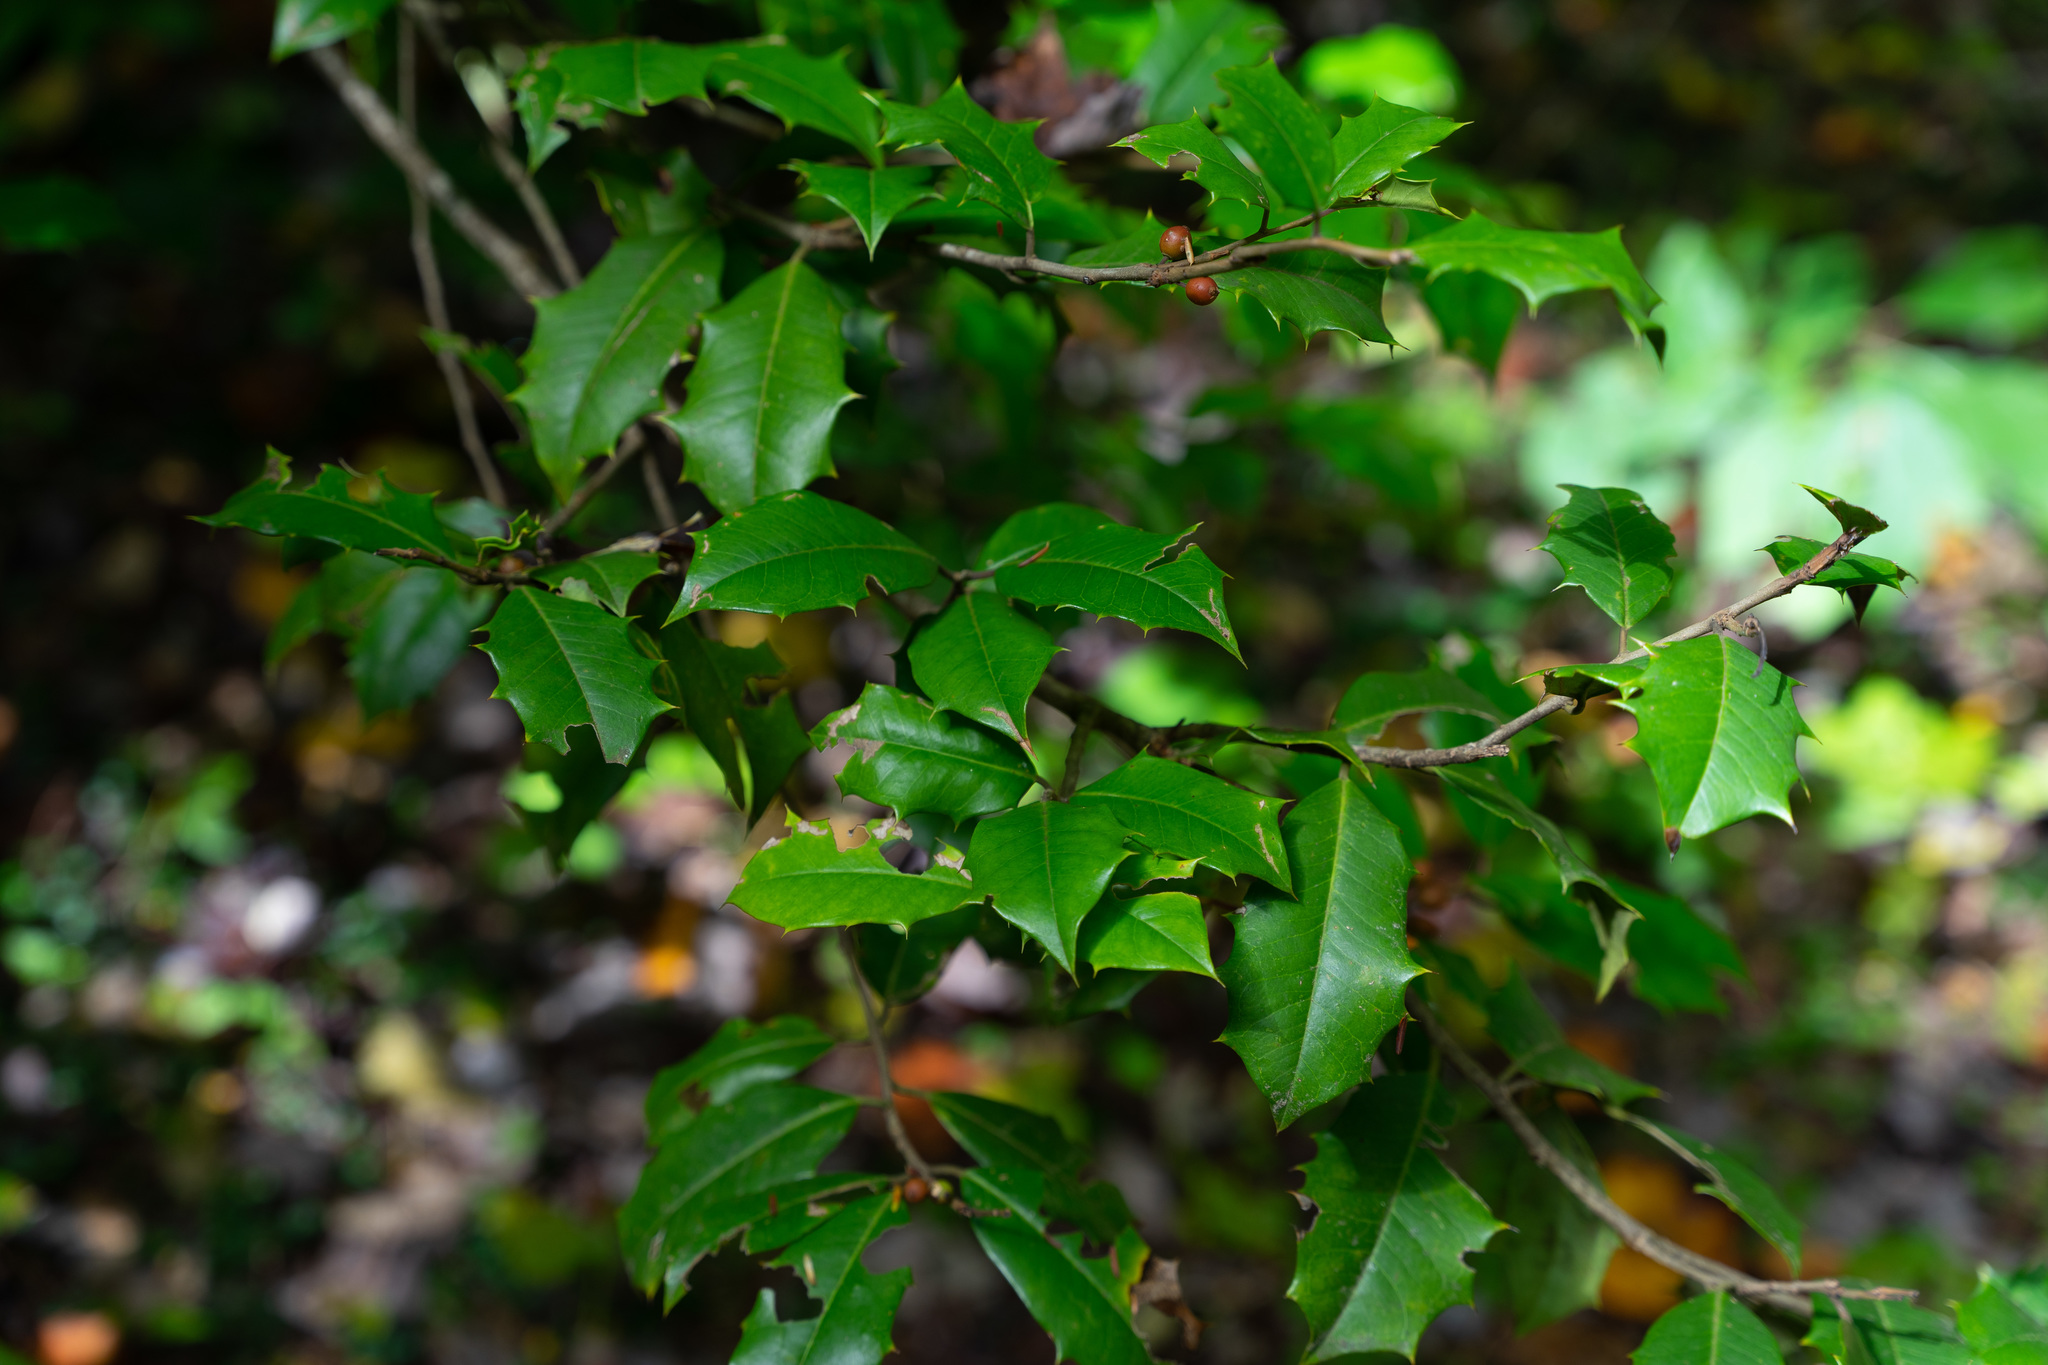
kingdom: Plantae
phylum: Tracheophyta
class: Magnoliopsida
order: Aquifoliales
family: Aquifoliaceae
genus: Ilex
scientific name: Ilex opaca
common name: American holly
